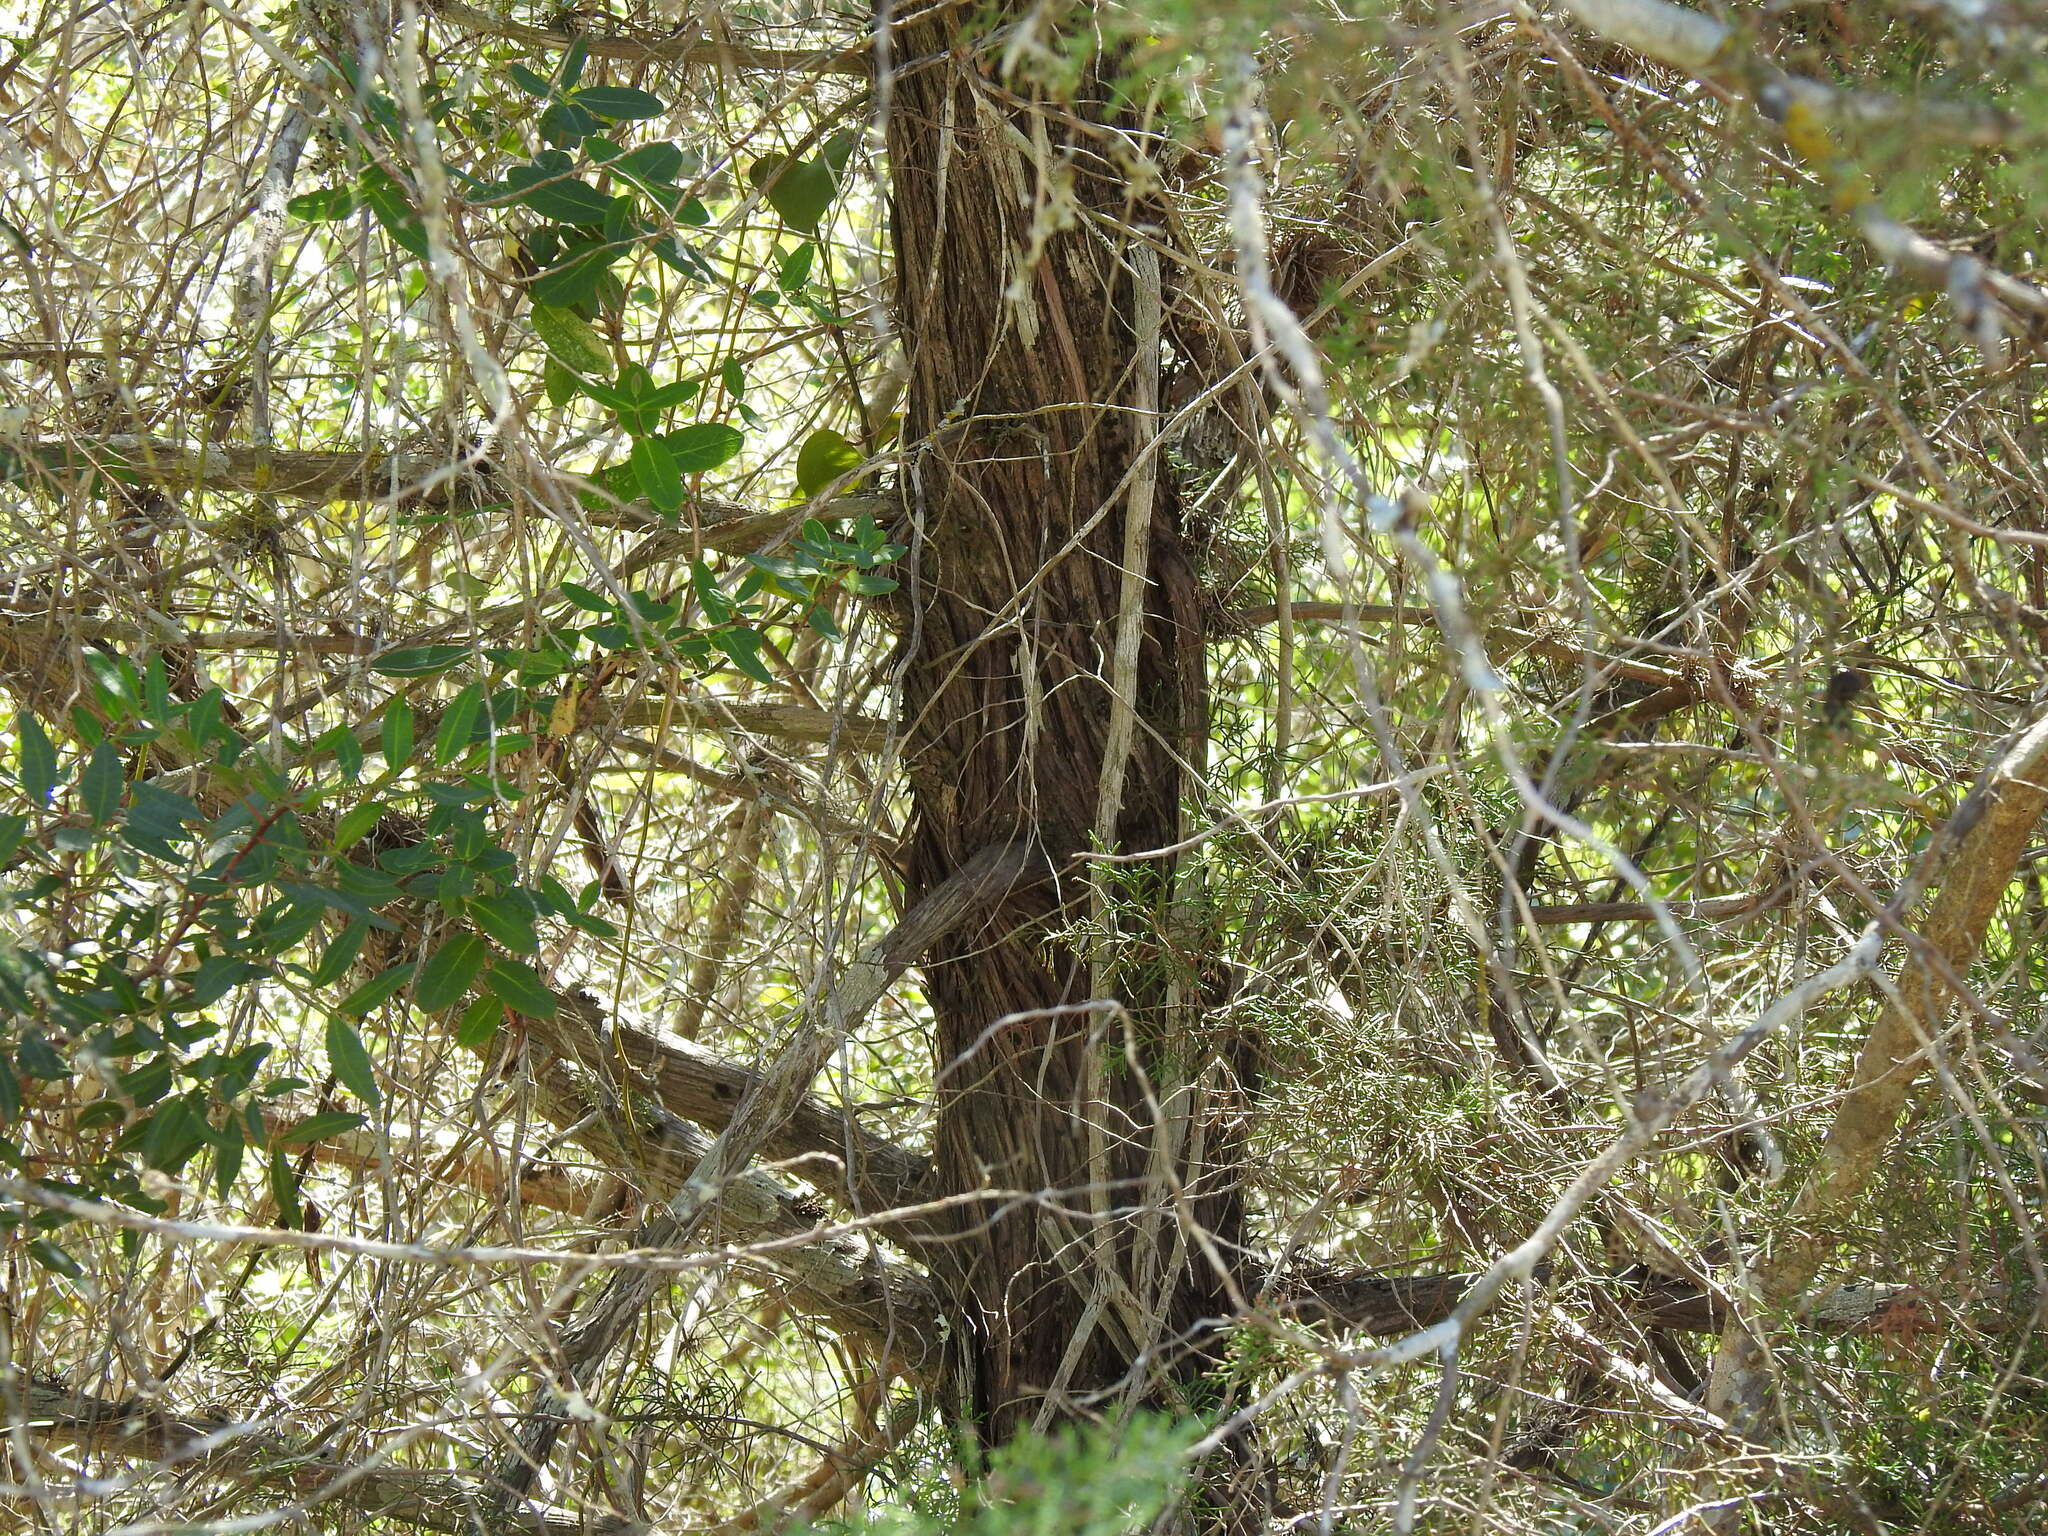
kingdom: Plantae
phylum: Tracheophyta
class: Pinopsida
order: Pinales
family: Cupressaceae
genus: Juniperus
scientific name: Juniperus phoenicea
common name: Phoenician juniper
